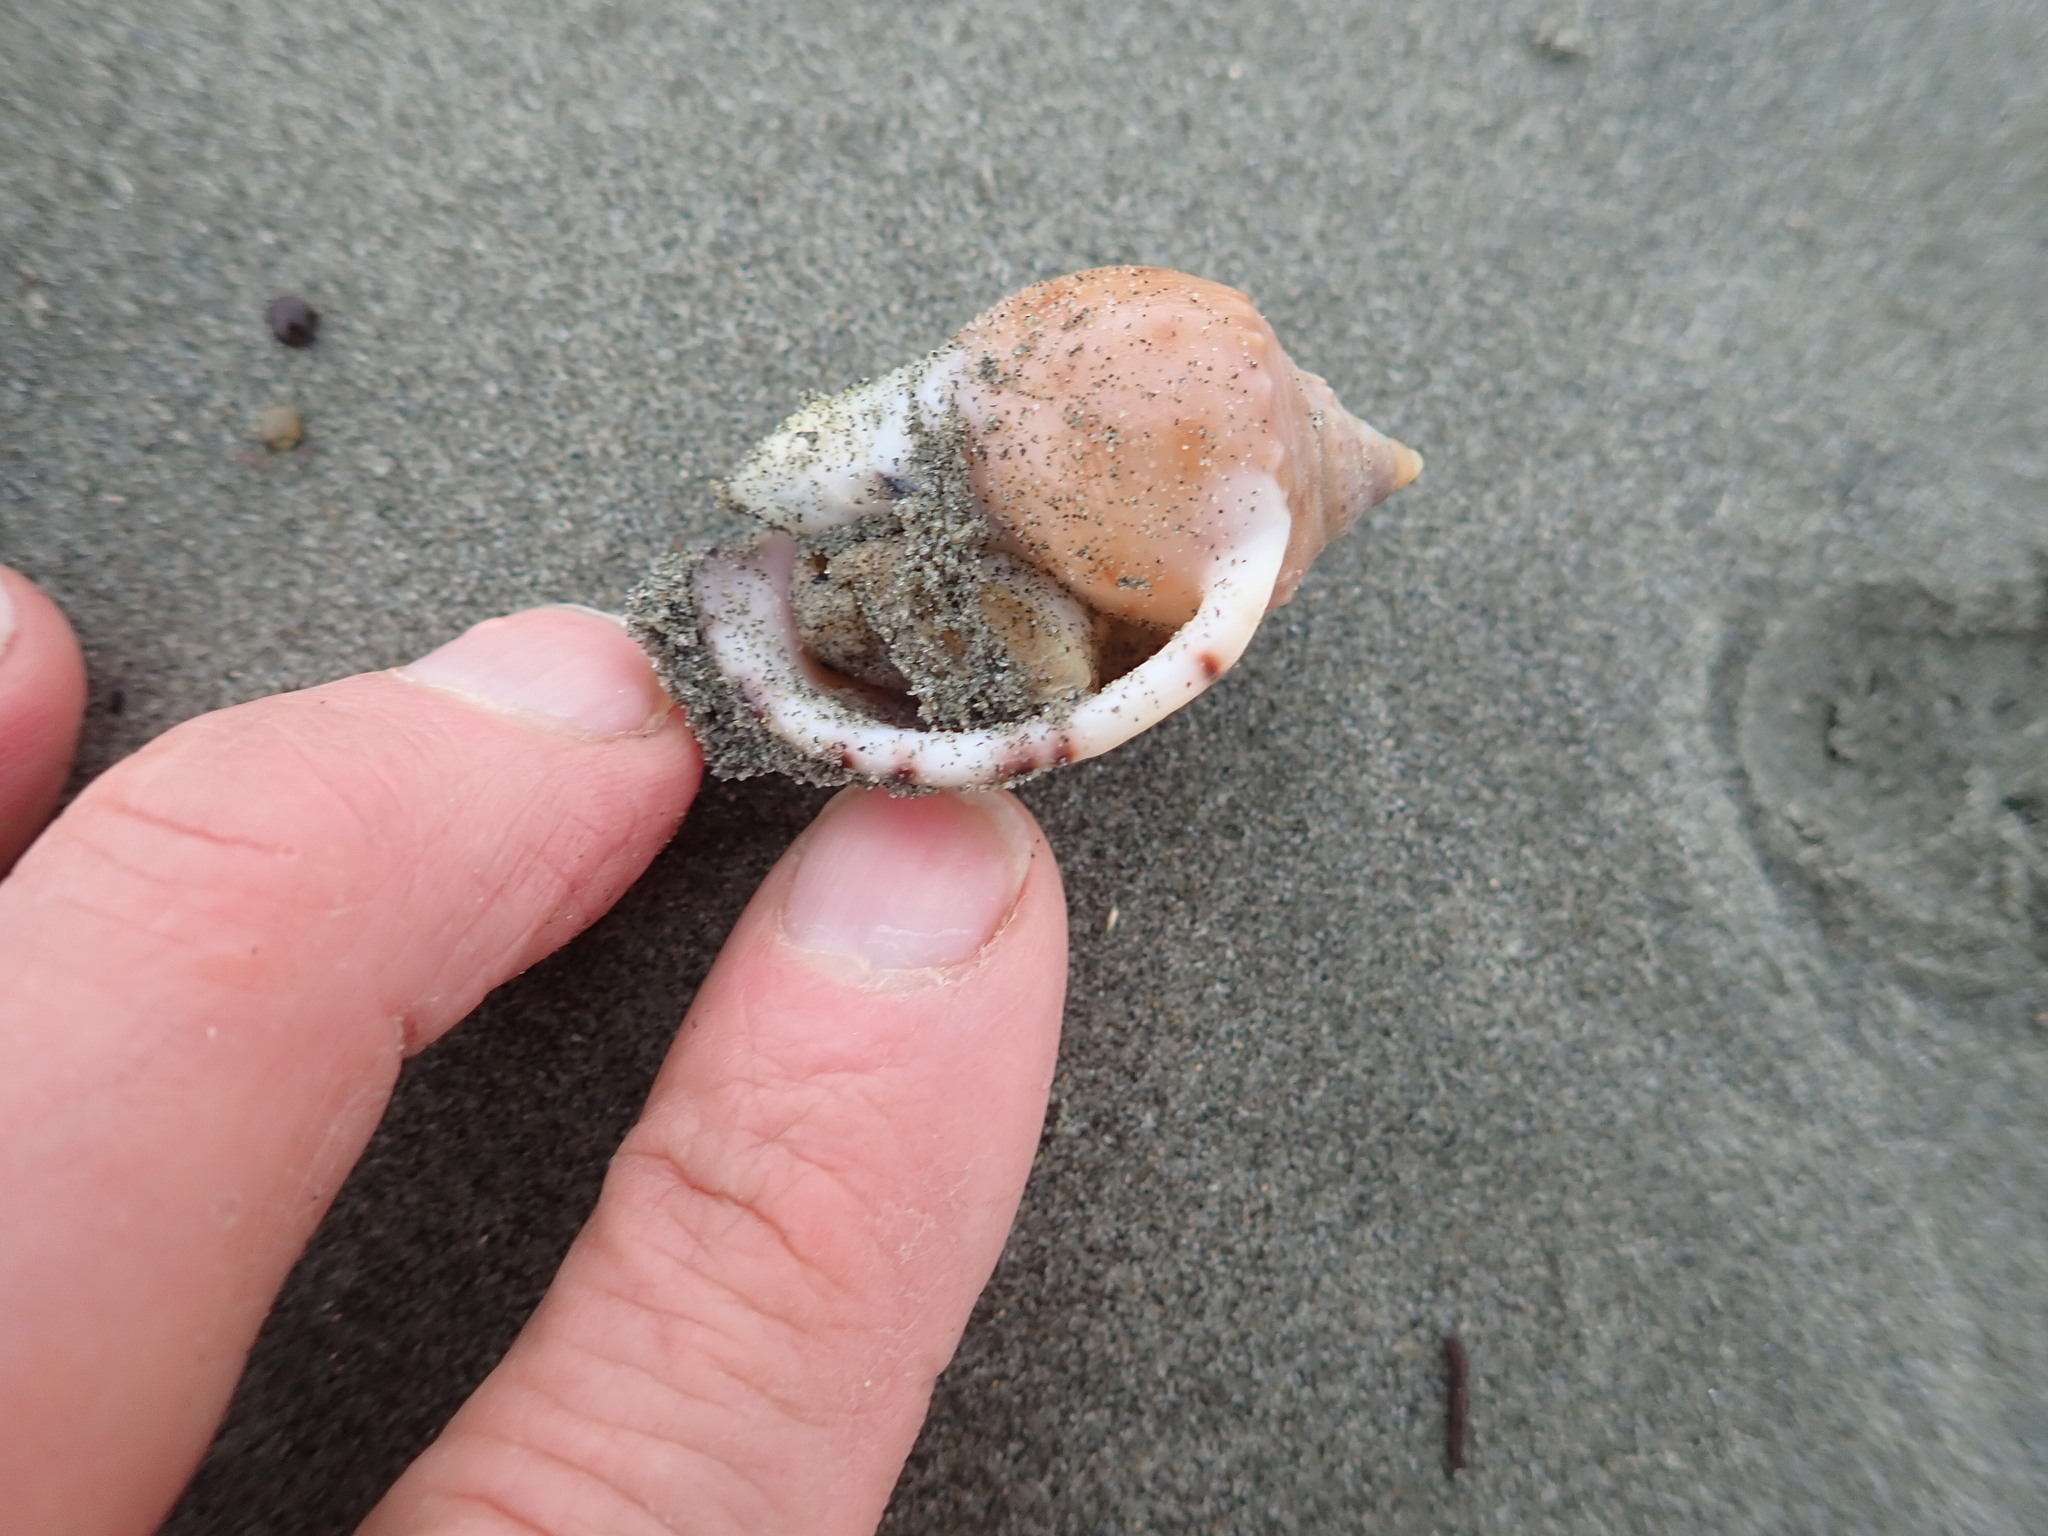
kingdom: Animalia
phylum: Mollusca
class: Gastropoda
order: Littorinimorpha
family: Cassidae
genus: Semicassis
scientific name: Semicassis pyrum
